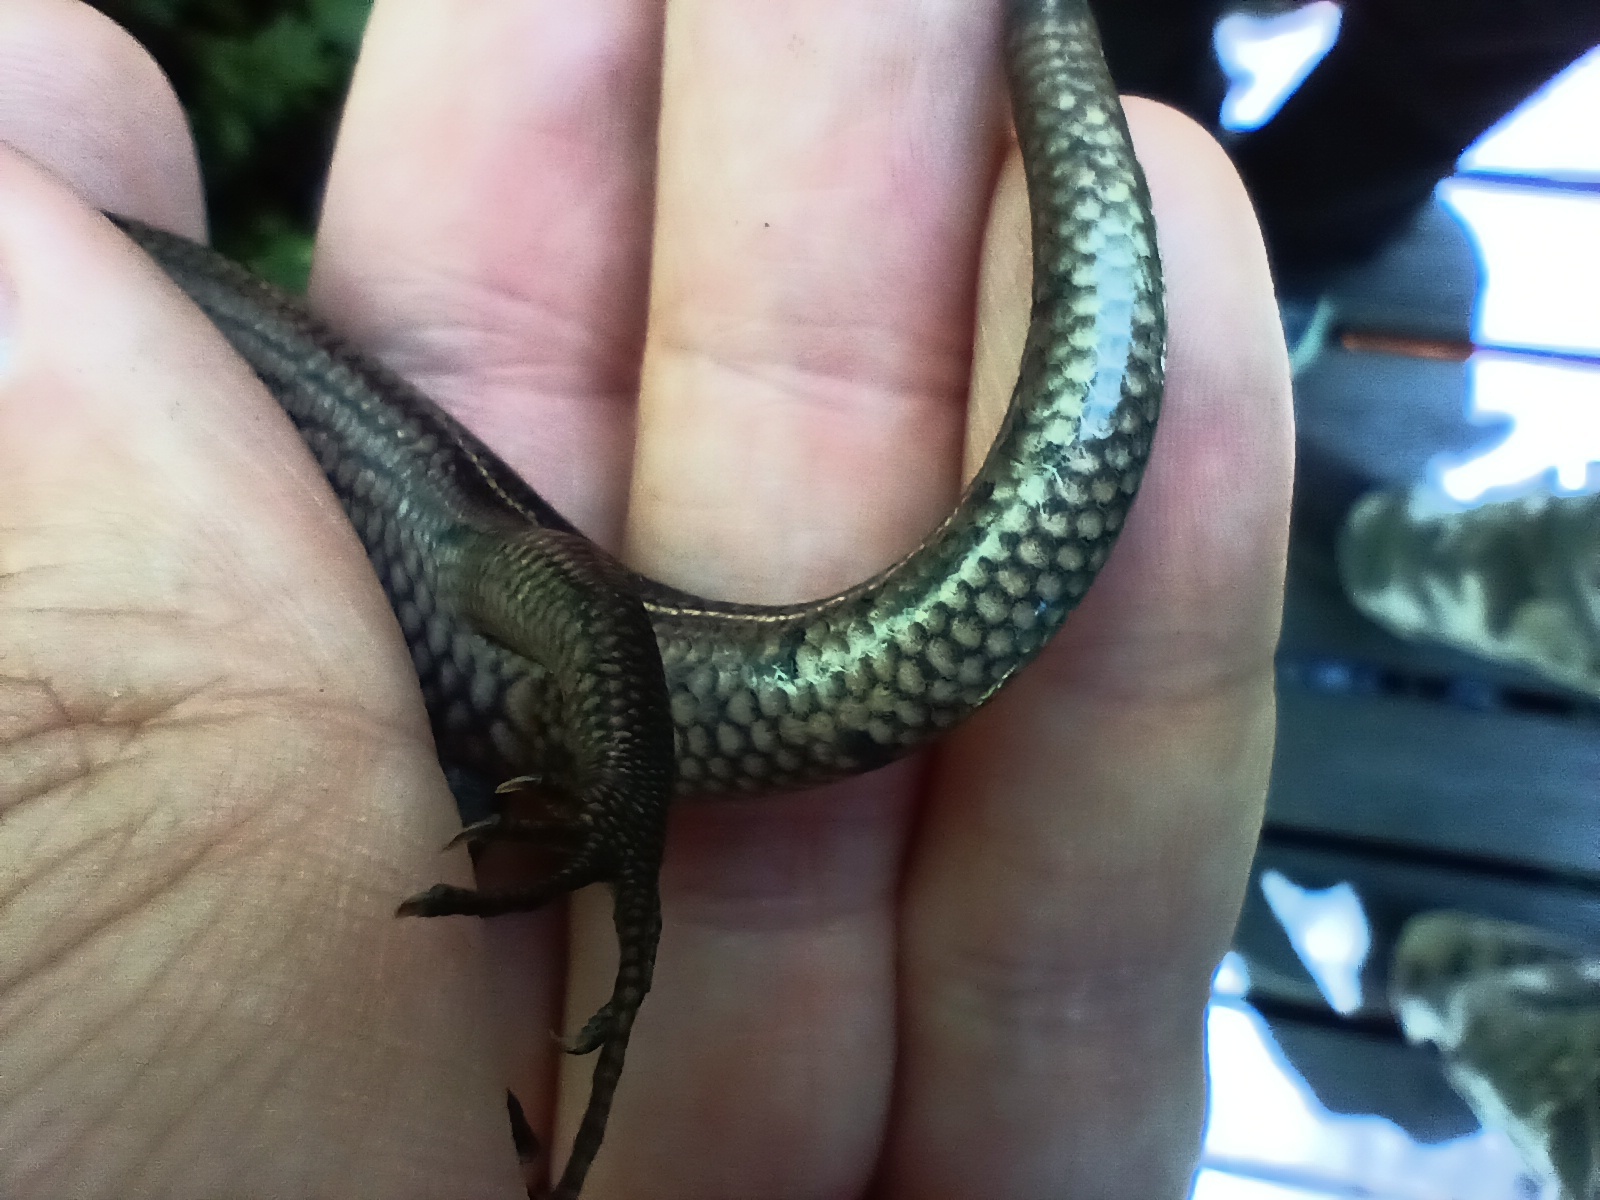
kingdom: Animalia
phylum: Chordata
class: Squamata
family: Scincidae
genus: Plestiodon
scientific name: Plestiodon inexpectatus
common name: Southeastern five-lined skink
